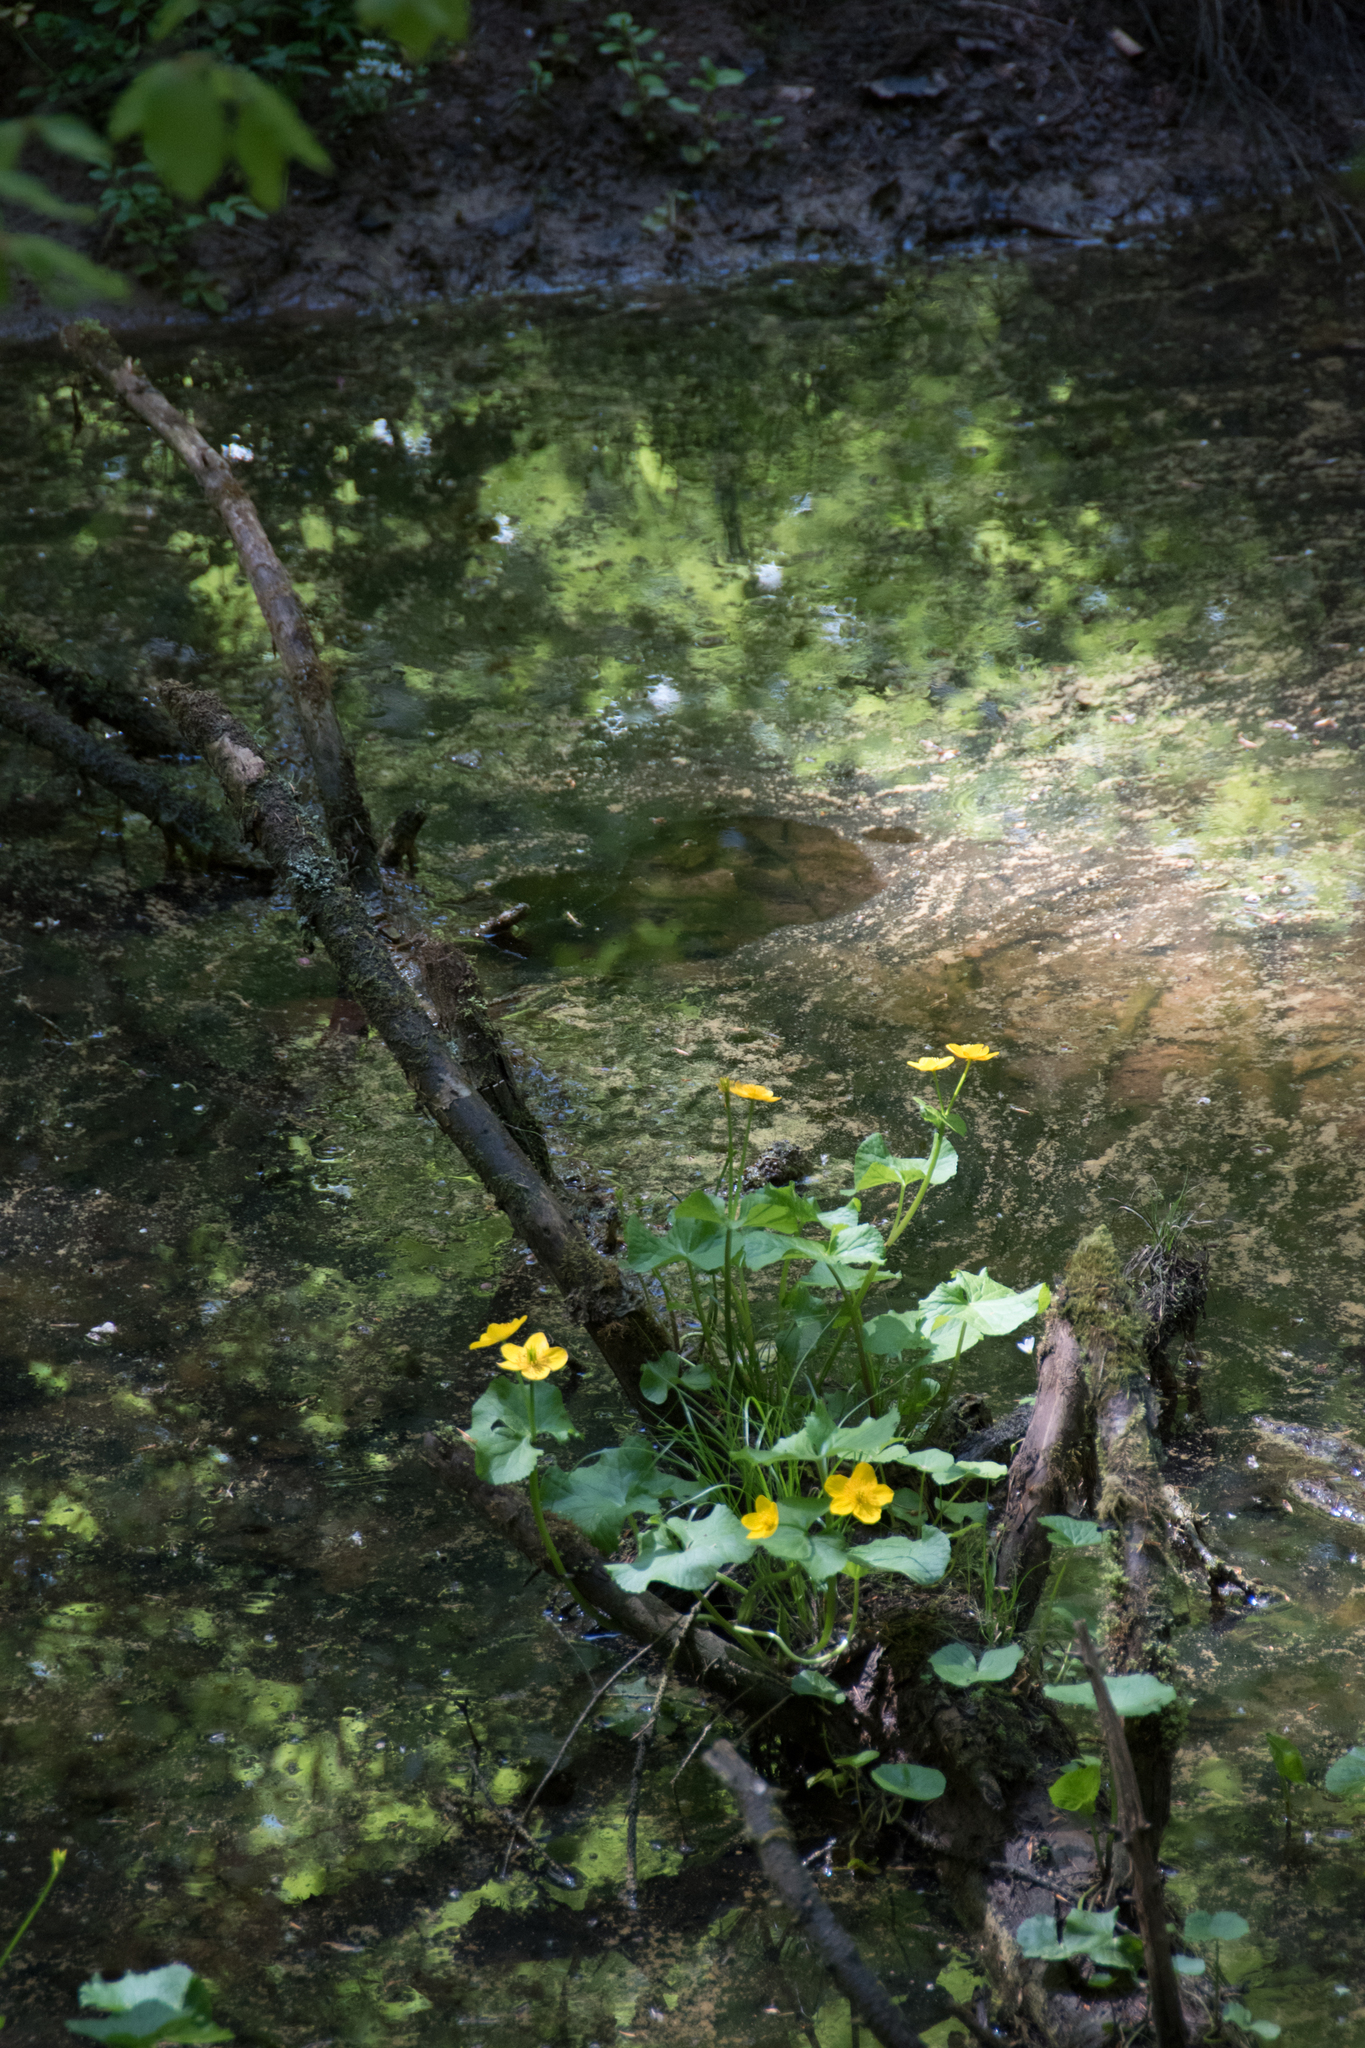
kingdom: Plantae
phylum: Tracheophyta
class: Magnoliopsida
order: Ranunculales
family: Ranunculaceae
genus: Caltha
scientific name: Caltha palustris
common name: Marsh marigold
